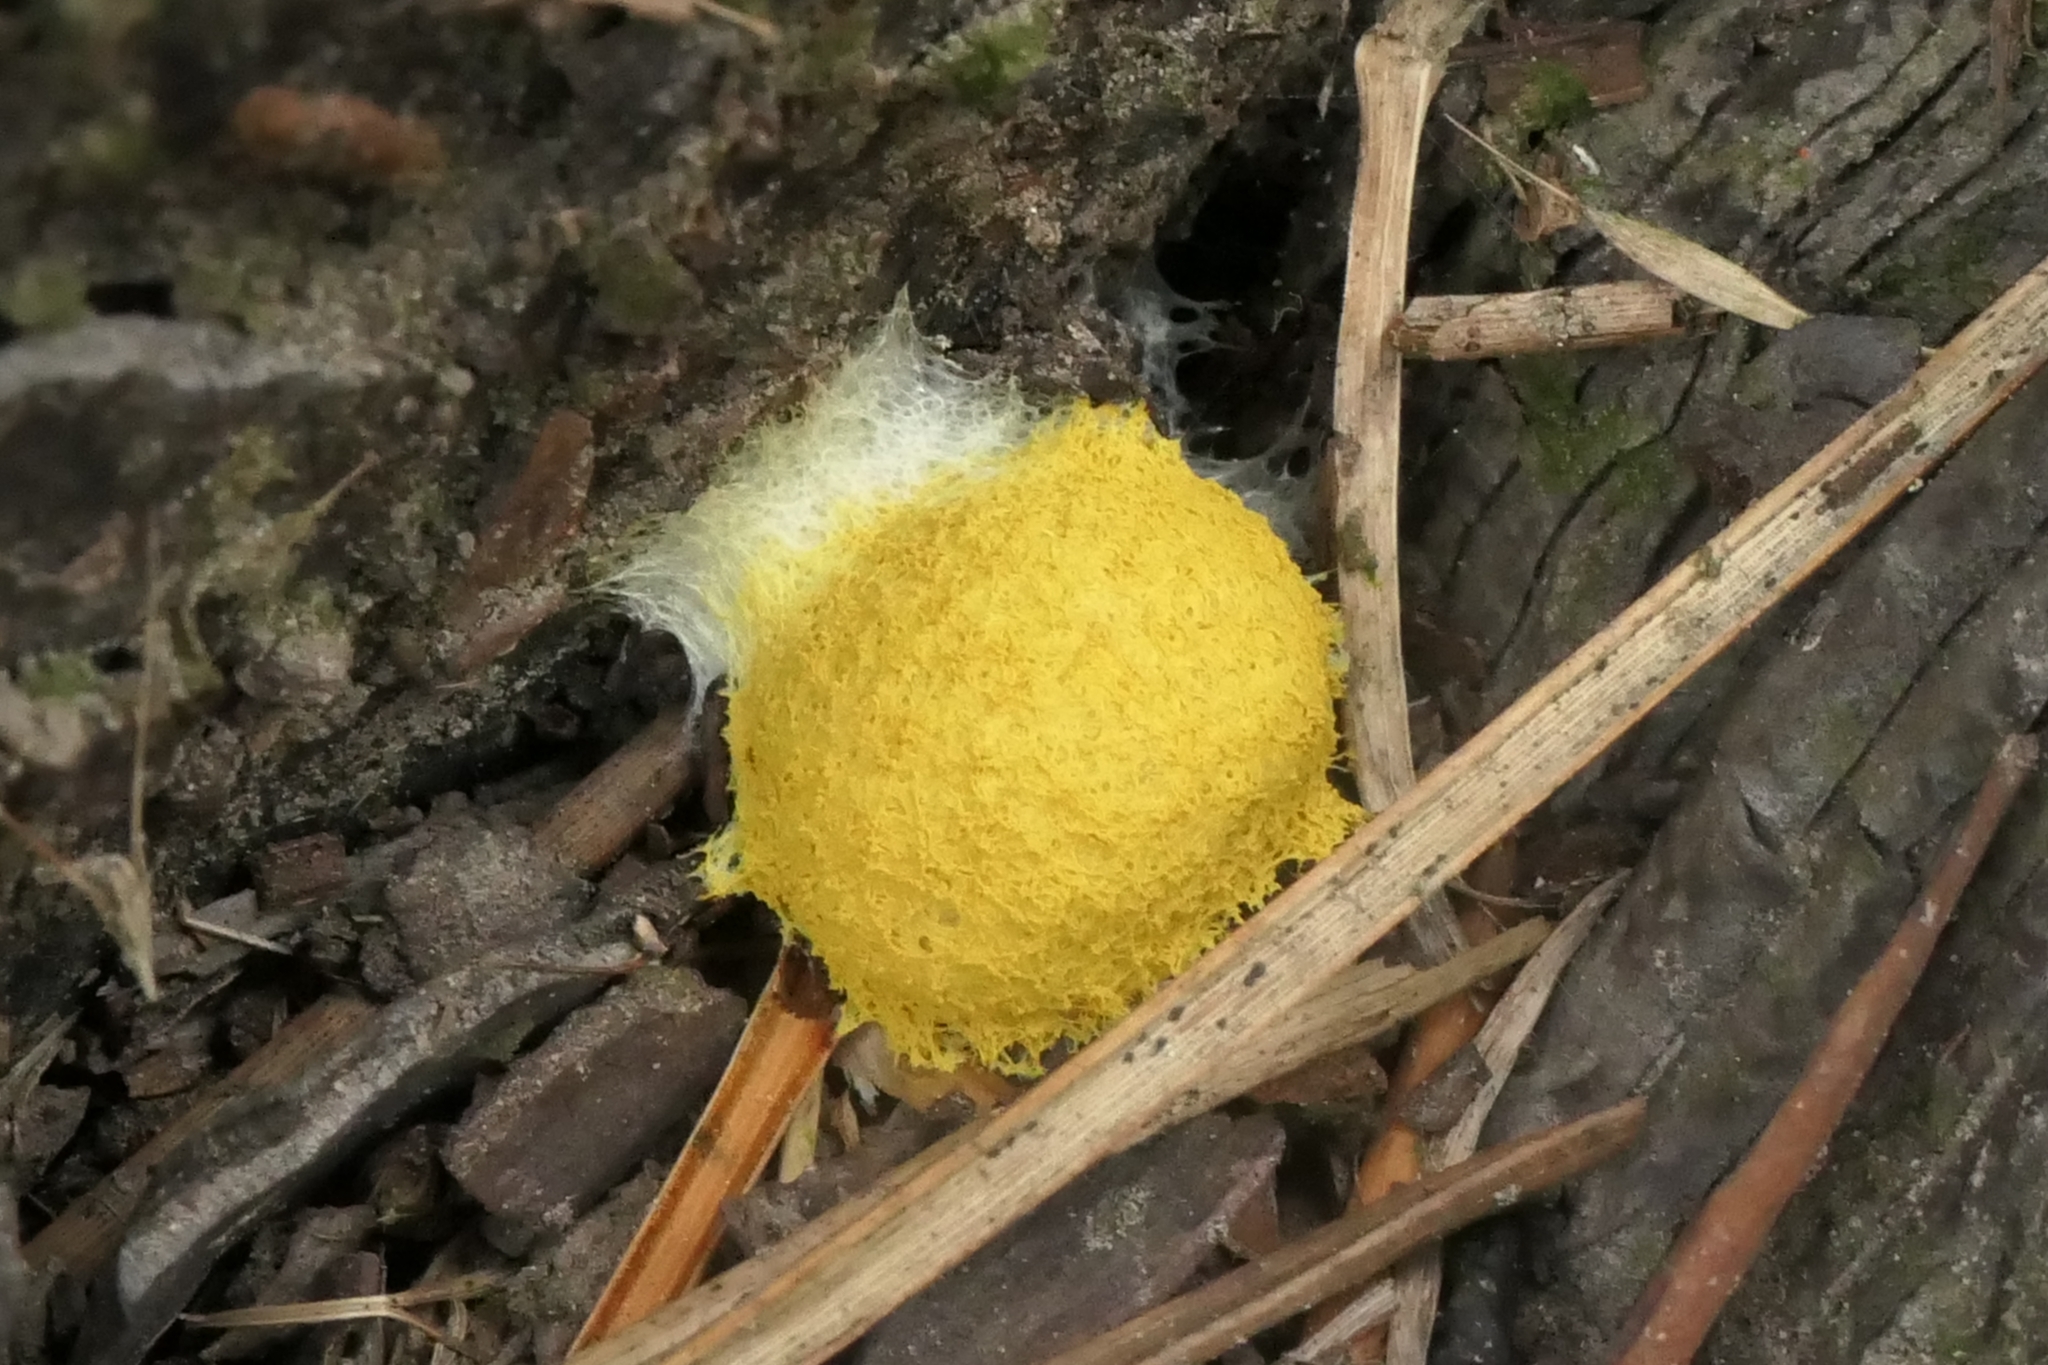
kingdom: Protozoa
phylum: Mycetozoa
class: Myxomycetes
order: Physarales
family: Physaraceae
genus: Fuligo
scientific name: Fuligo septica
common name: Dog vomit slime mold
